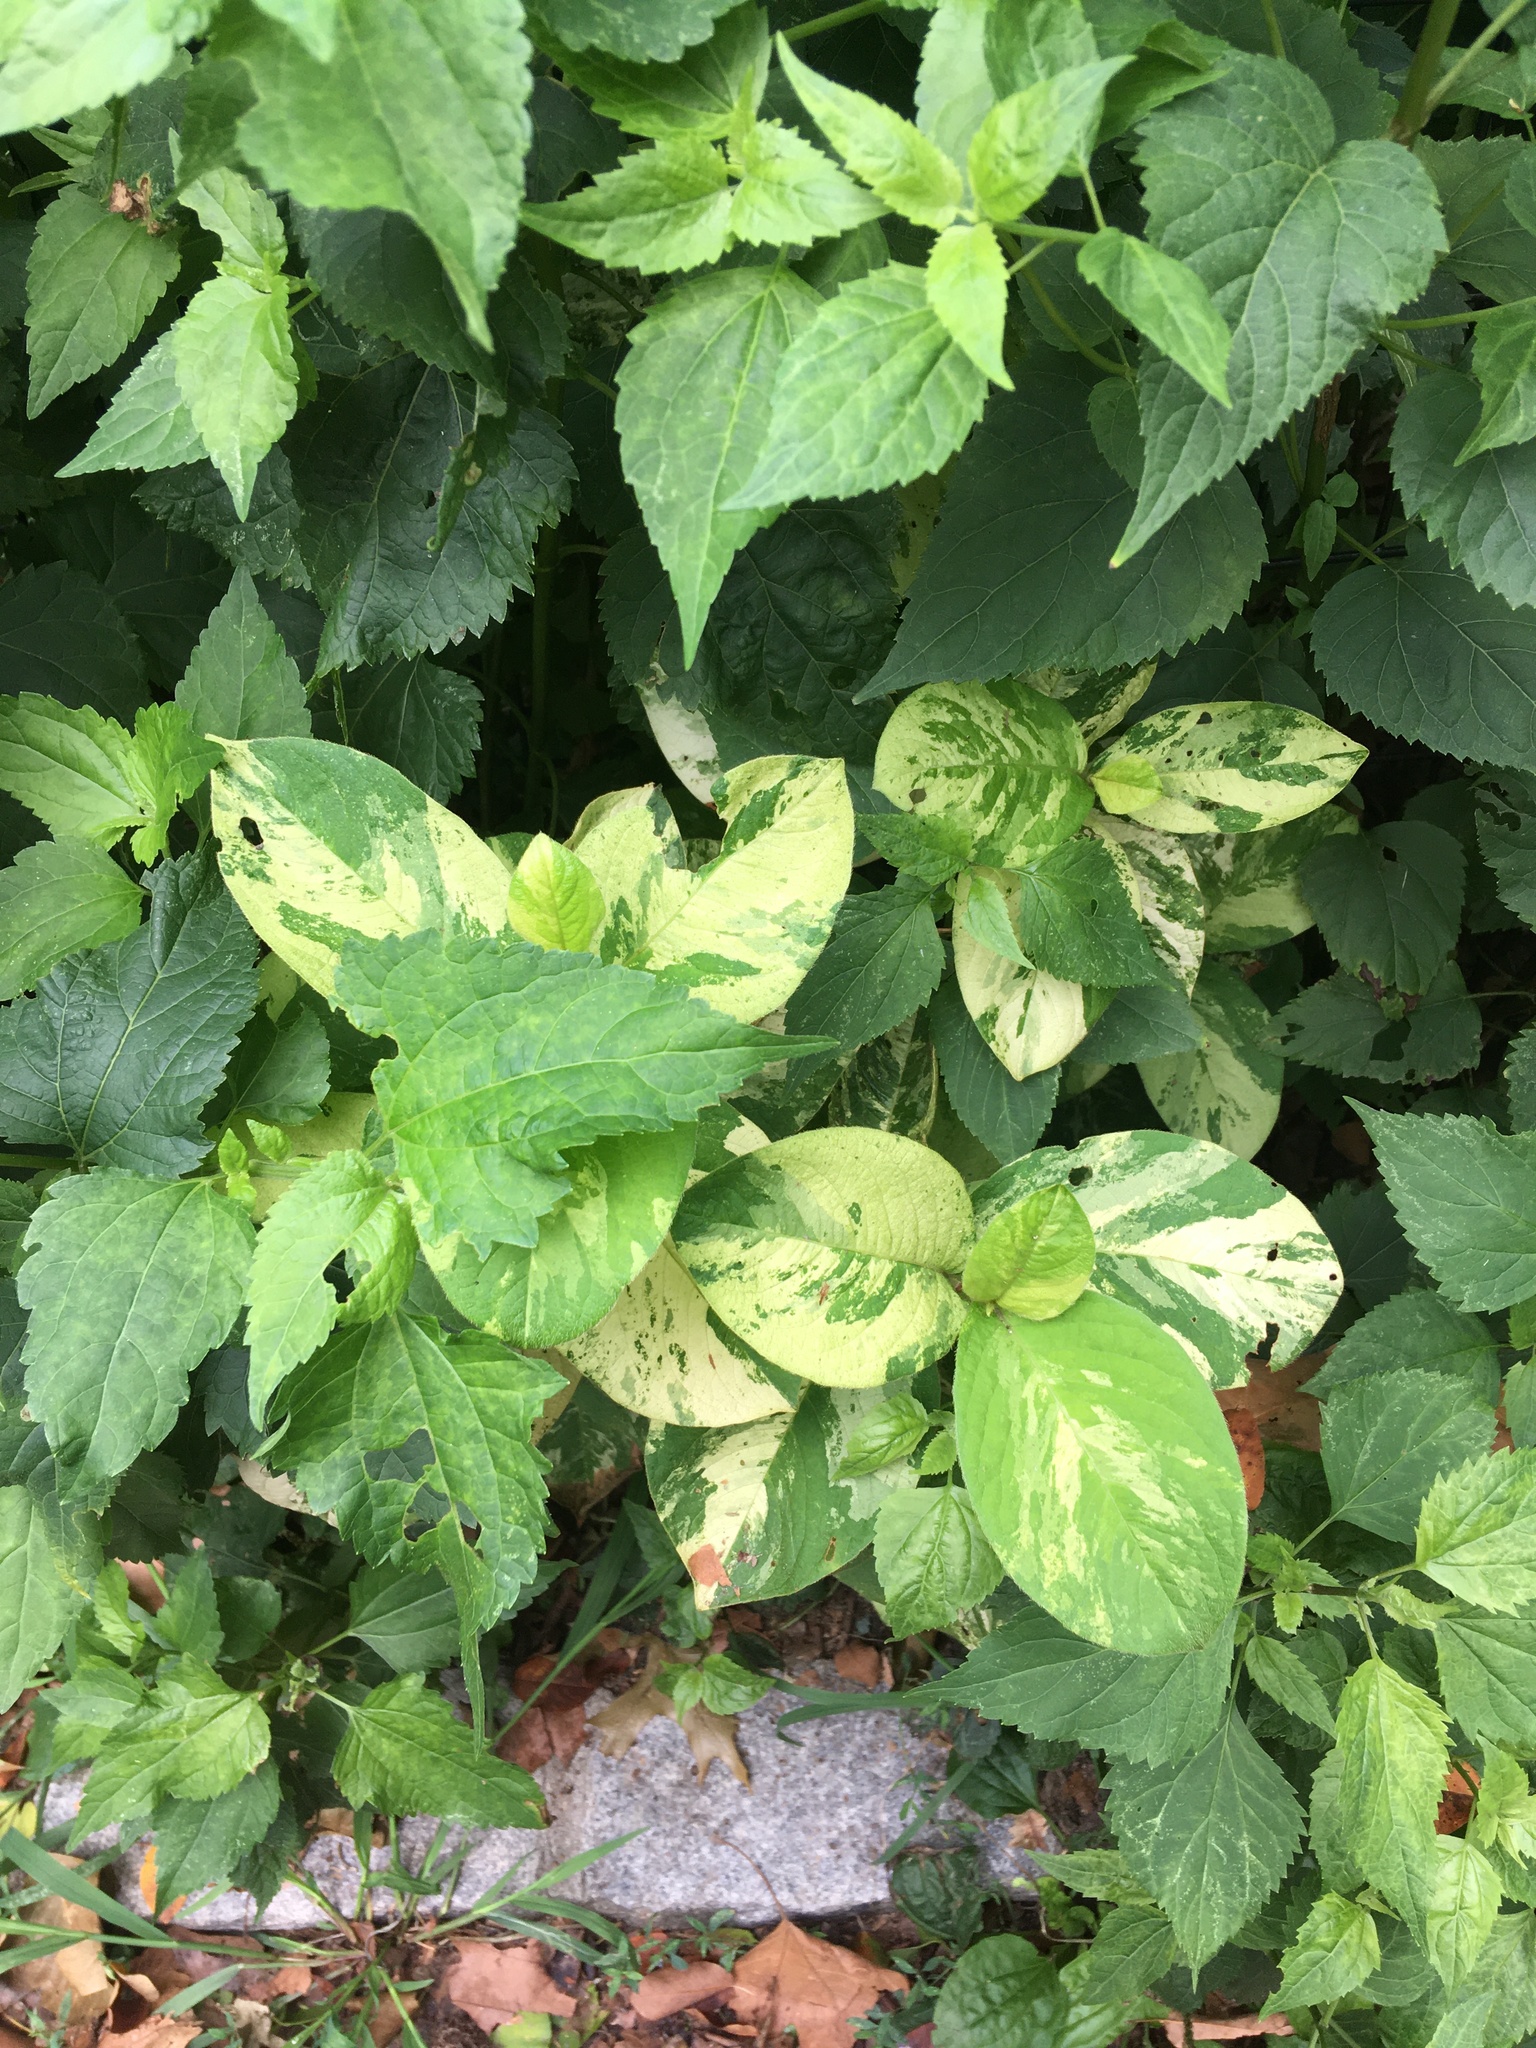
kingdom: Plantae
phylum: Tracheophyta
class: Magnoliopsida
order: Caryophyllales
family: Polygonaceae
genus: Persicaria
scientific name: Persicaria filiformis
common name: Asian jumpseed
